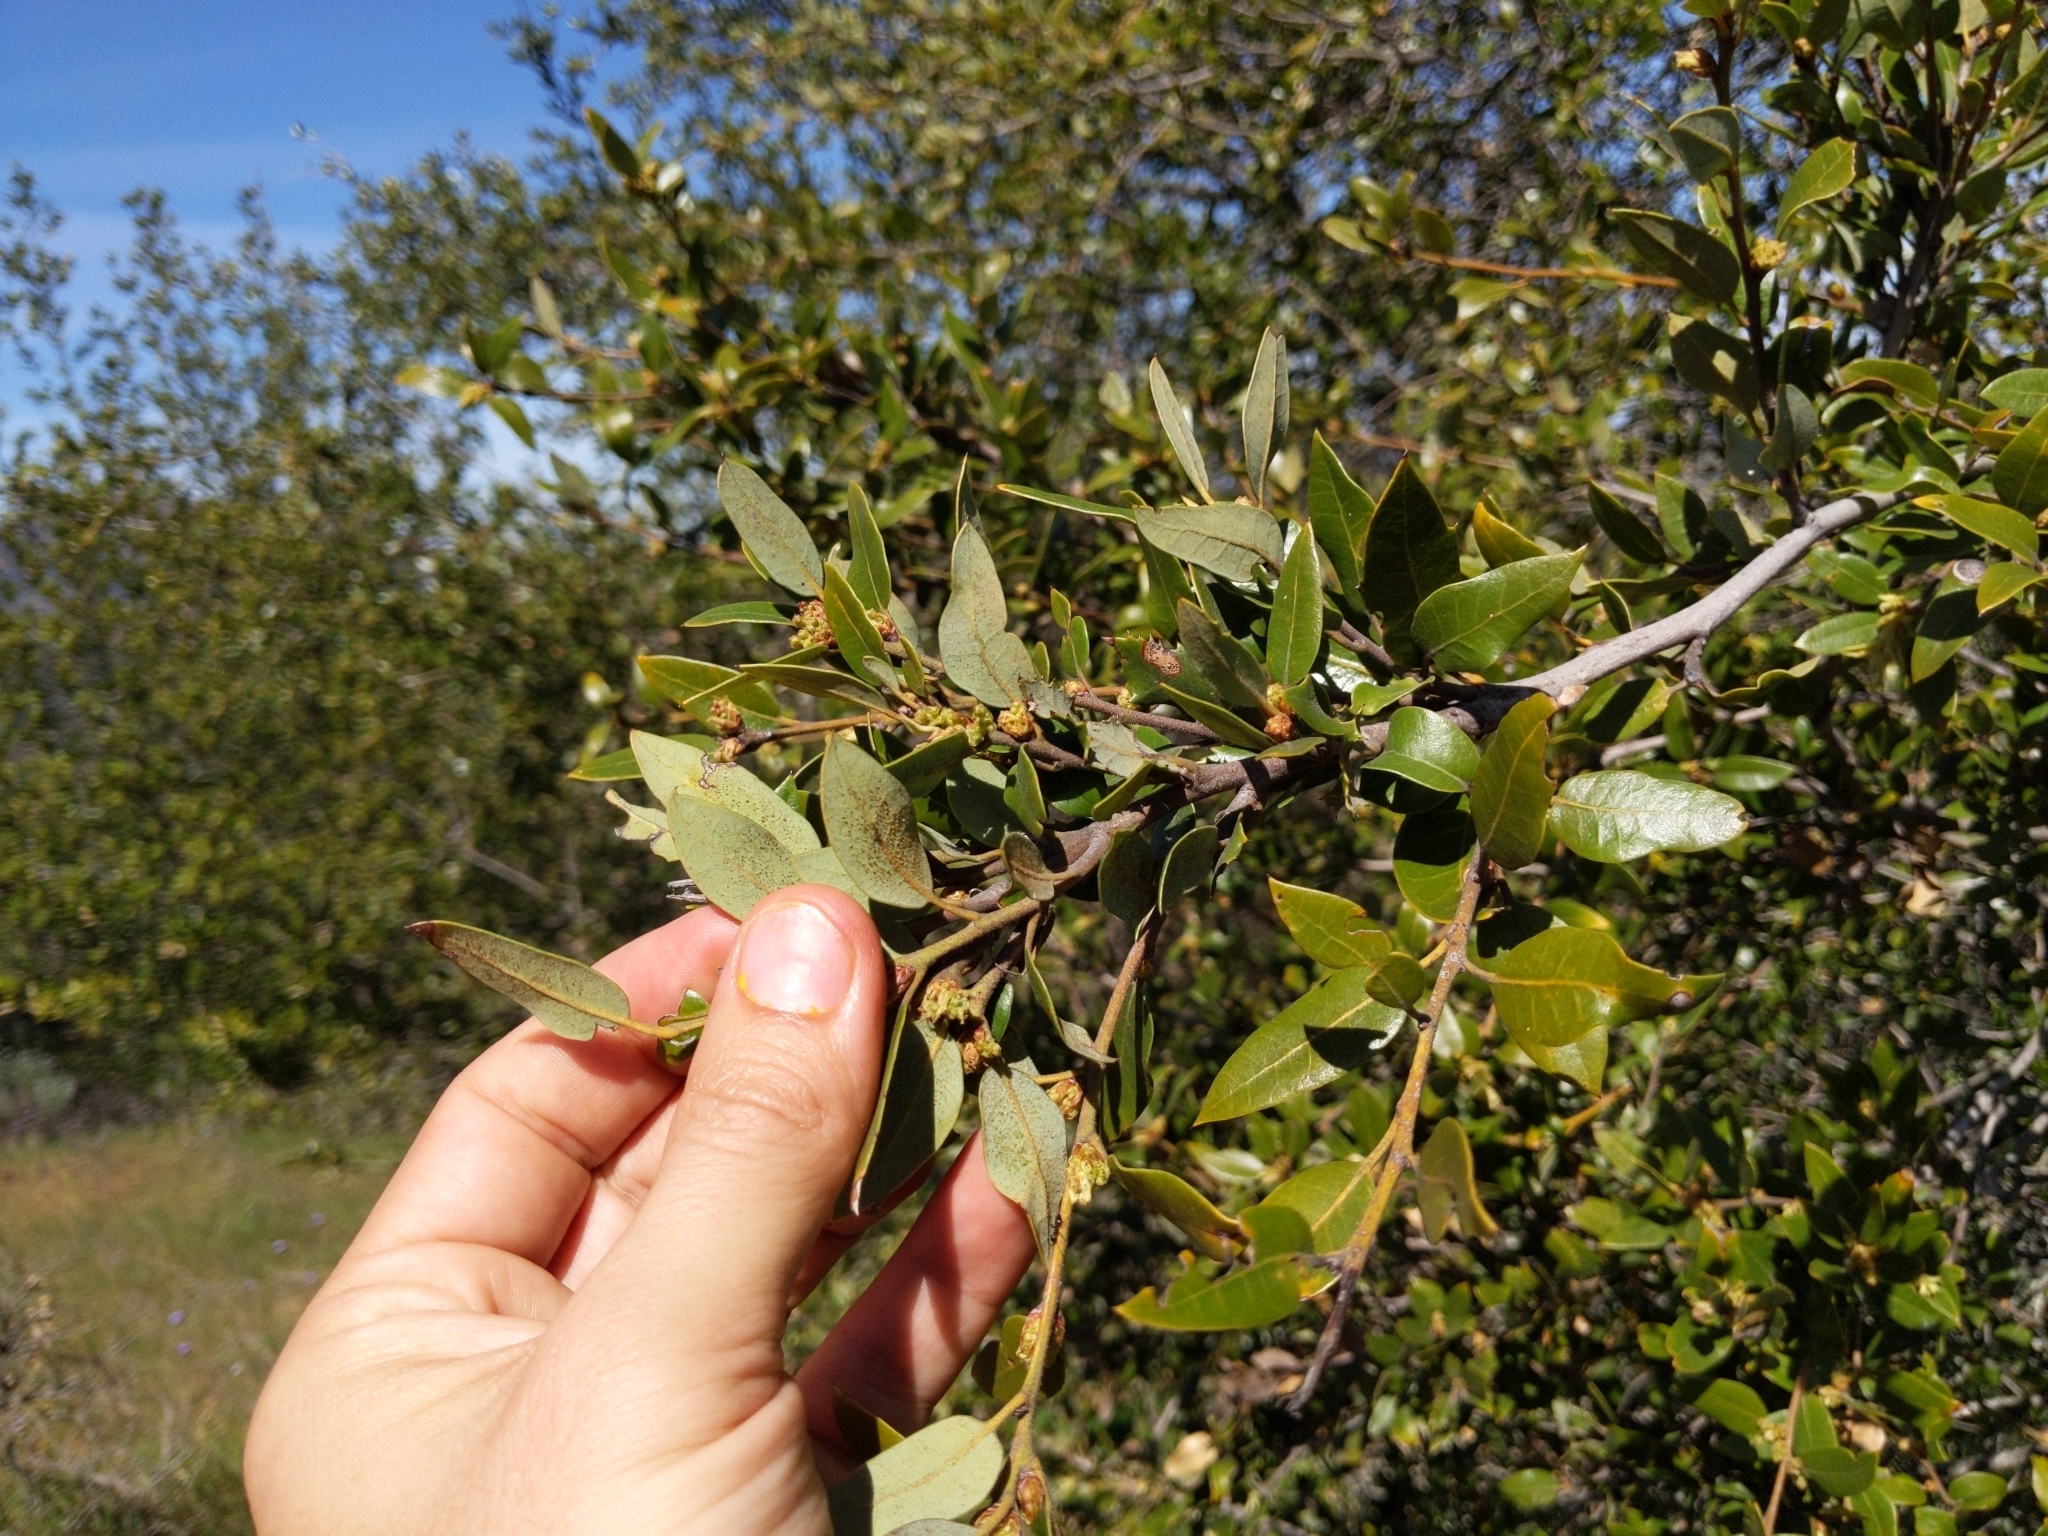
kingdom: Plantae
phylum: Tracheophyta
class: Magnoliopsida
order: Fagales
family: Fagaceae
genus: Quercus
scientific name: Quercus chrysolepis
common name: Canyon live oak
